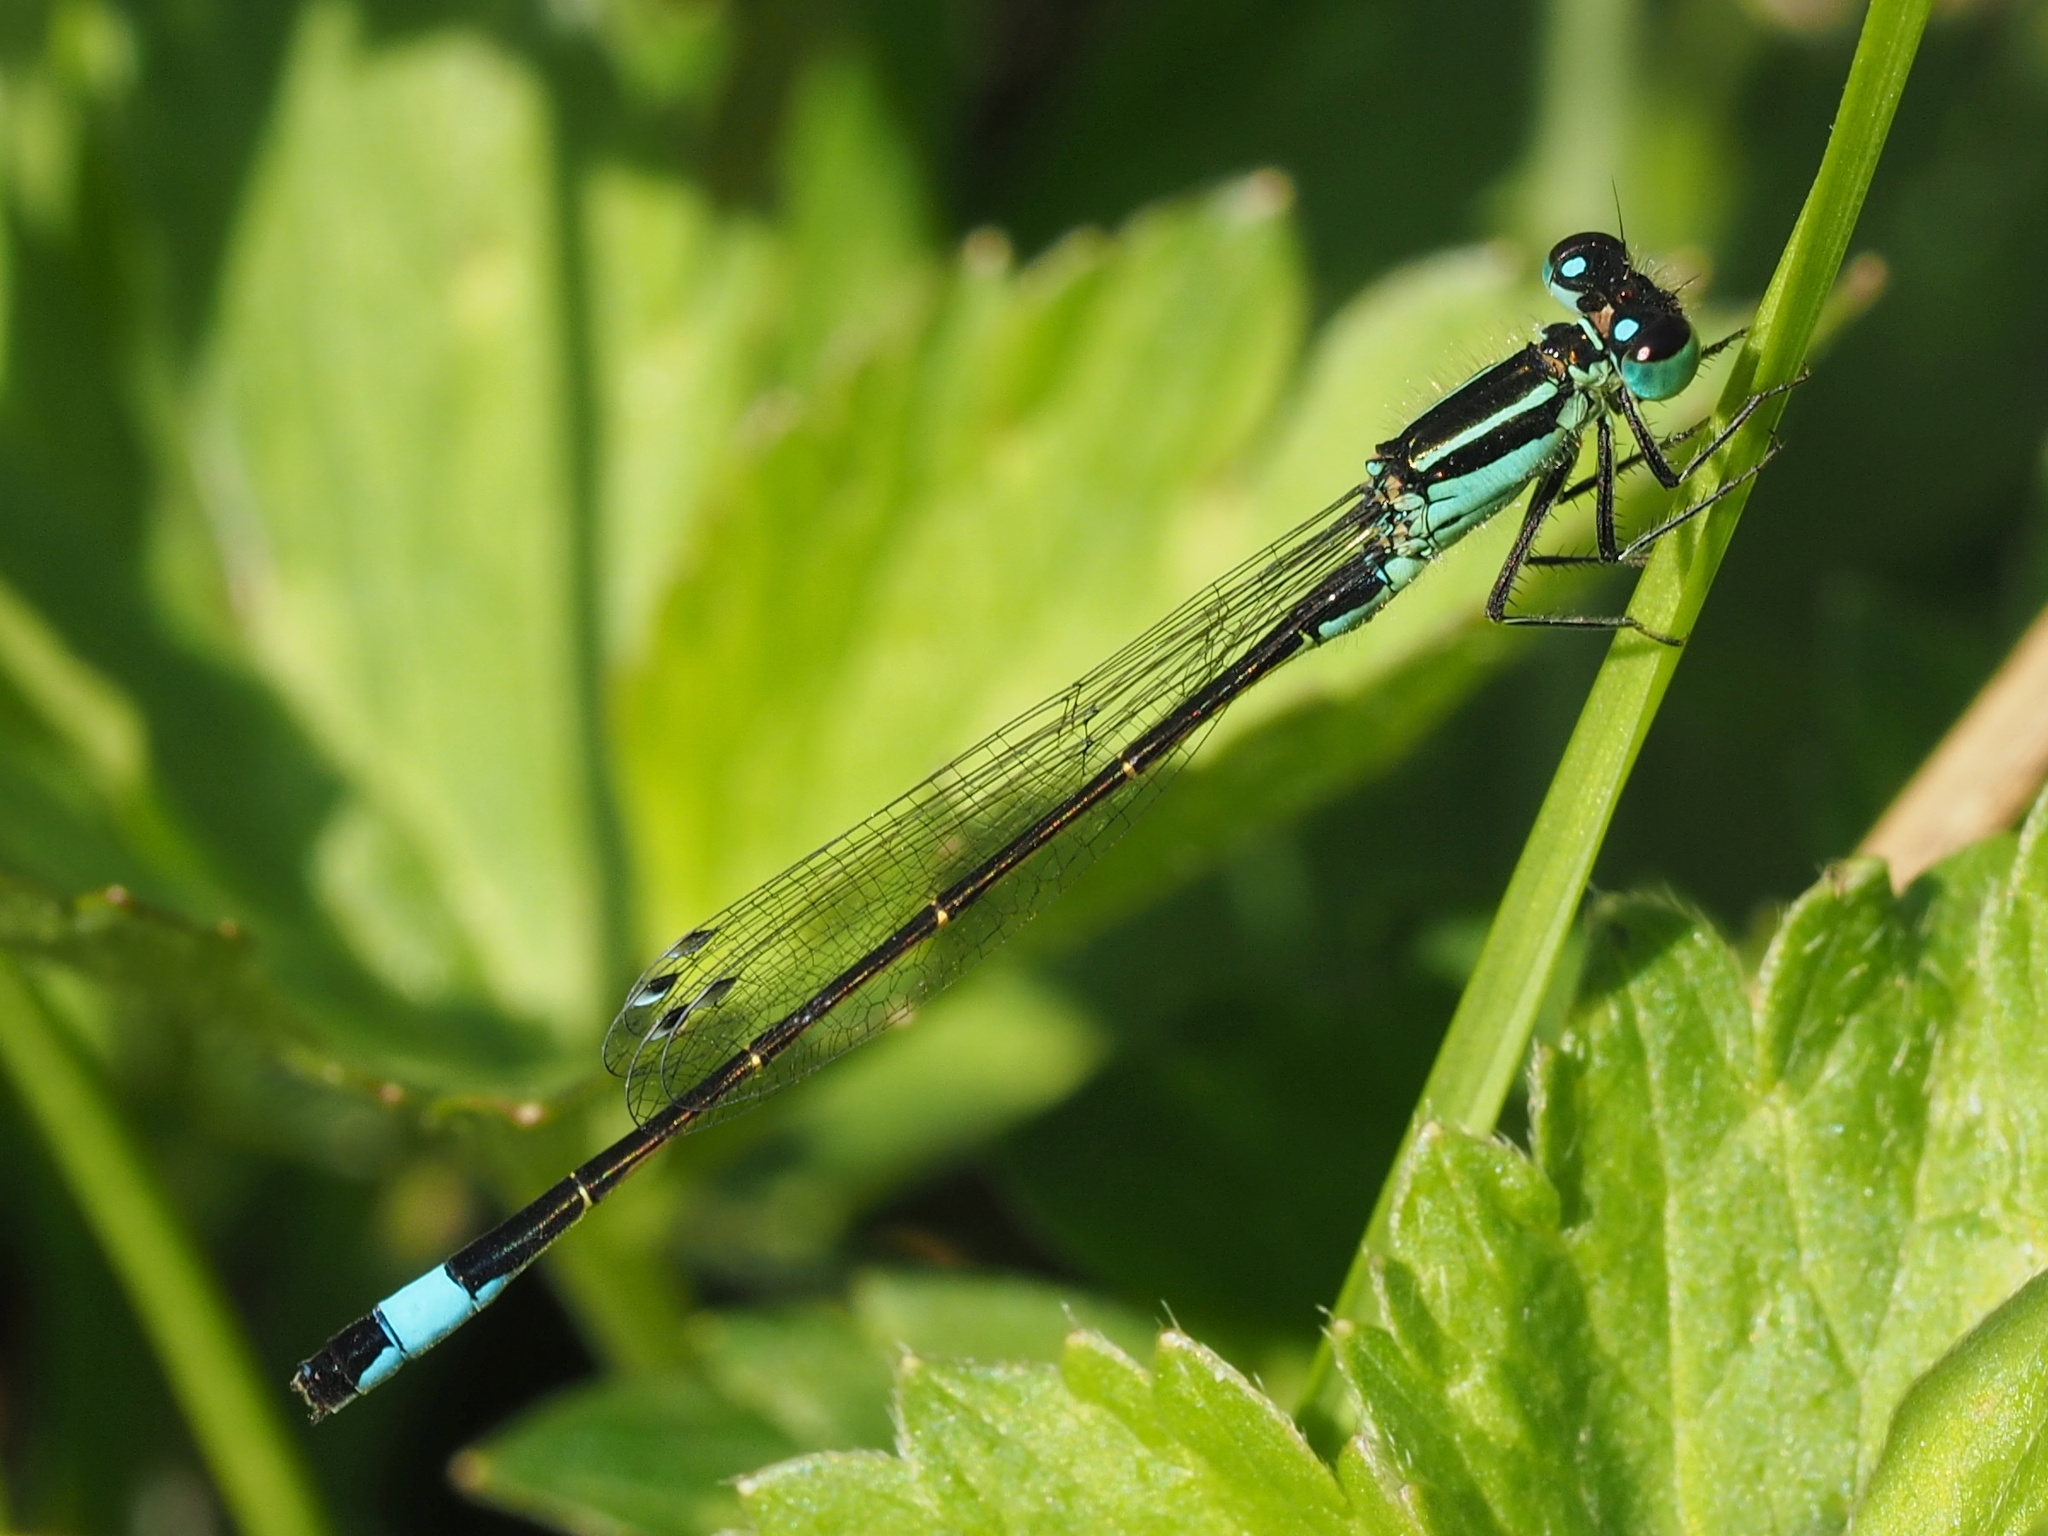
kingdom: Animalia
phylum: Arthropoda
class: Insecta
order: Odonata
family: Coenagrionidae
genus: Ischnura
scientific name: Ischnura elegans
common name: Blue-tailed damselfly
